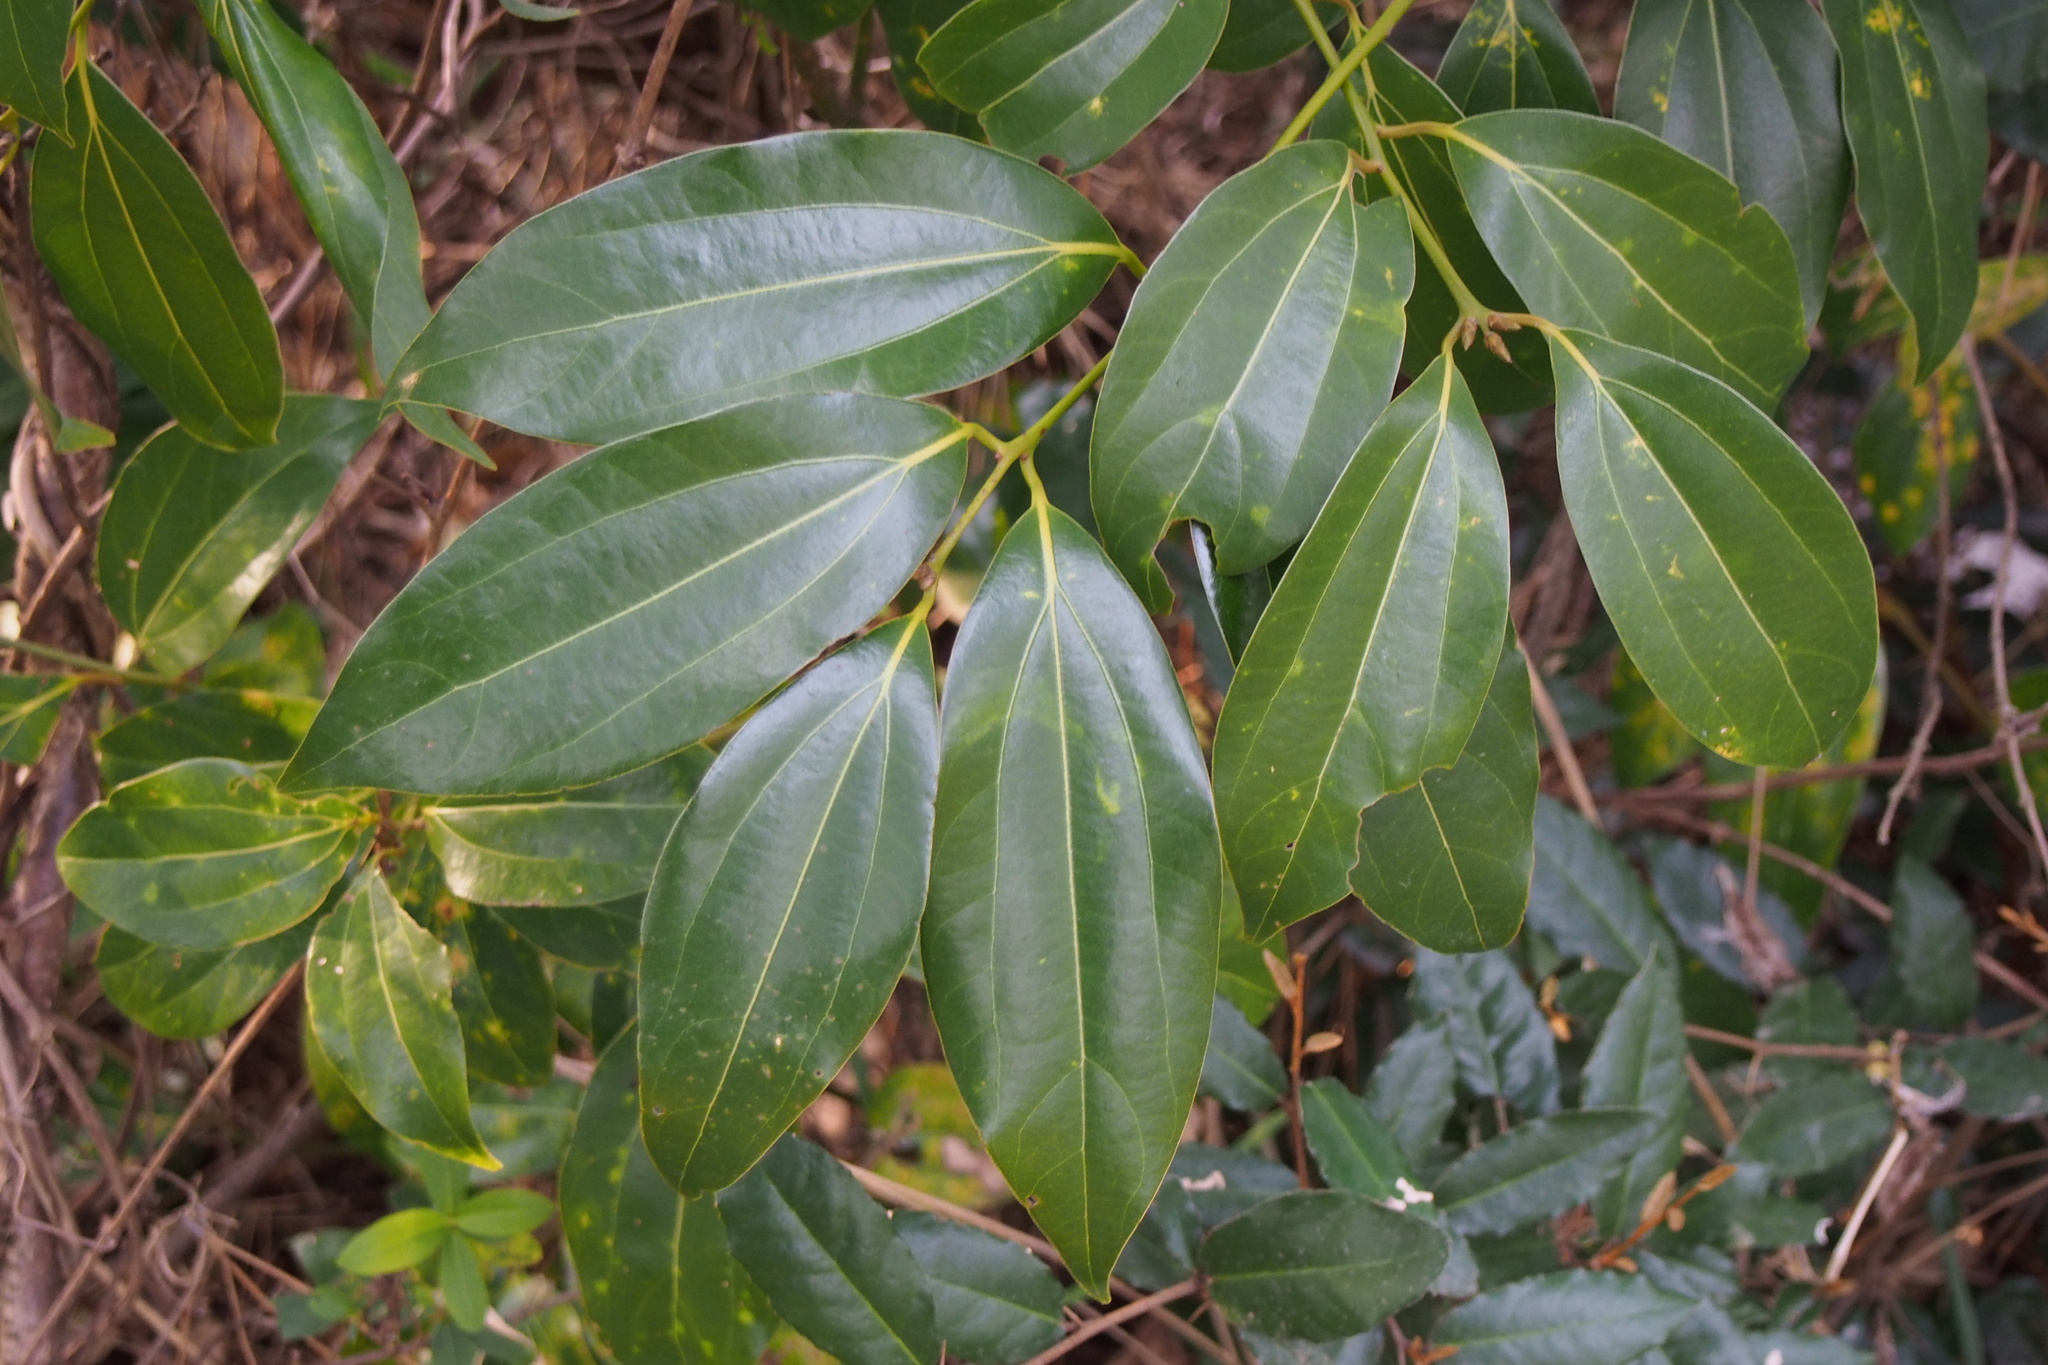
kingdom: Plantae
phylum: Tracheophyta
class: Magnoliopsida
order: Laurales
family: Lauraceae
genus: Cinnamomum
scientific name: Cinnamomum chekiangense
